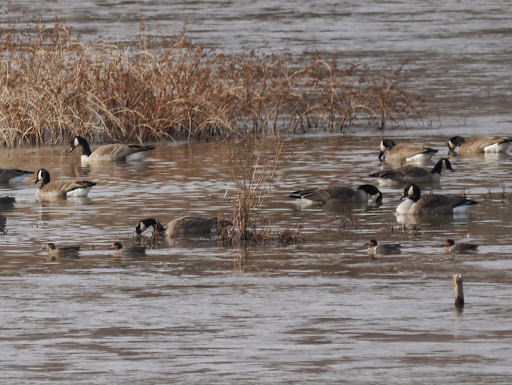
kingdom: Animalia
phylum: Chordata
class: Aves
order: Anseriformes
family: Anatidae
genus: Anas
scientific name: Anas crecca
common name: Eurasian teal
